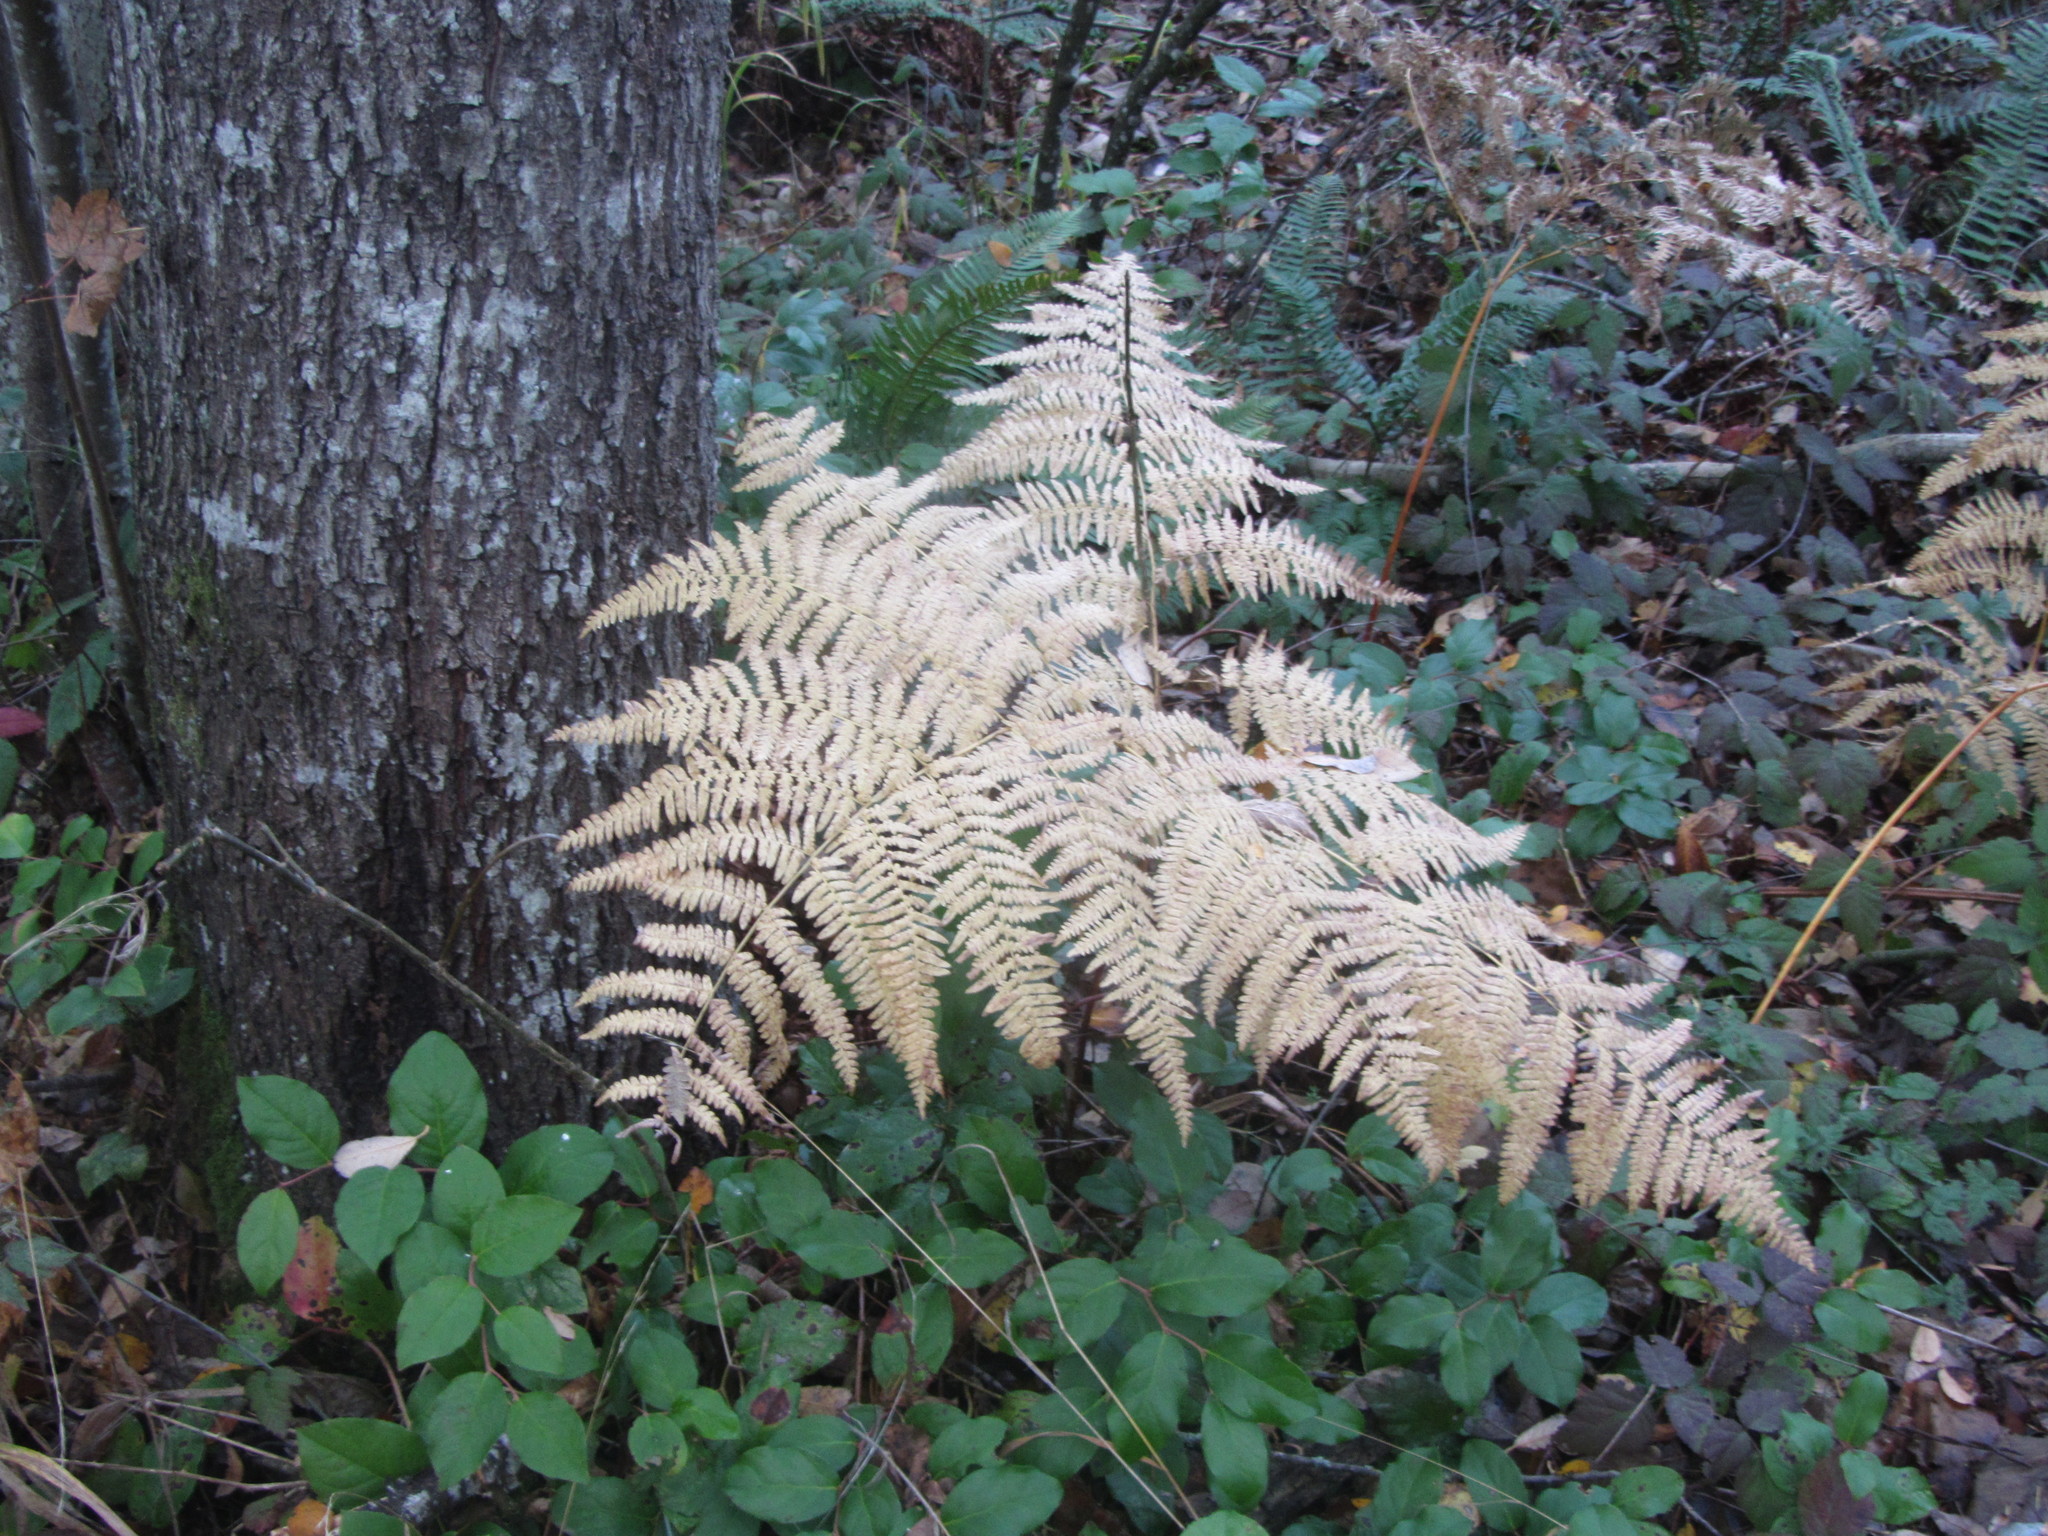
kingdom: Plantae
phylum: Tracheophyta
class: Polypodiopsida
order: Polypodiales
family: Dennstaedtiaceae
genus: Pteridium
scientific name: Pteridium aquilinum
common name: Bracken
